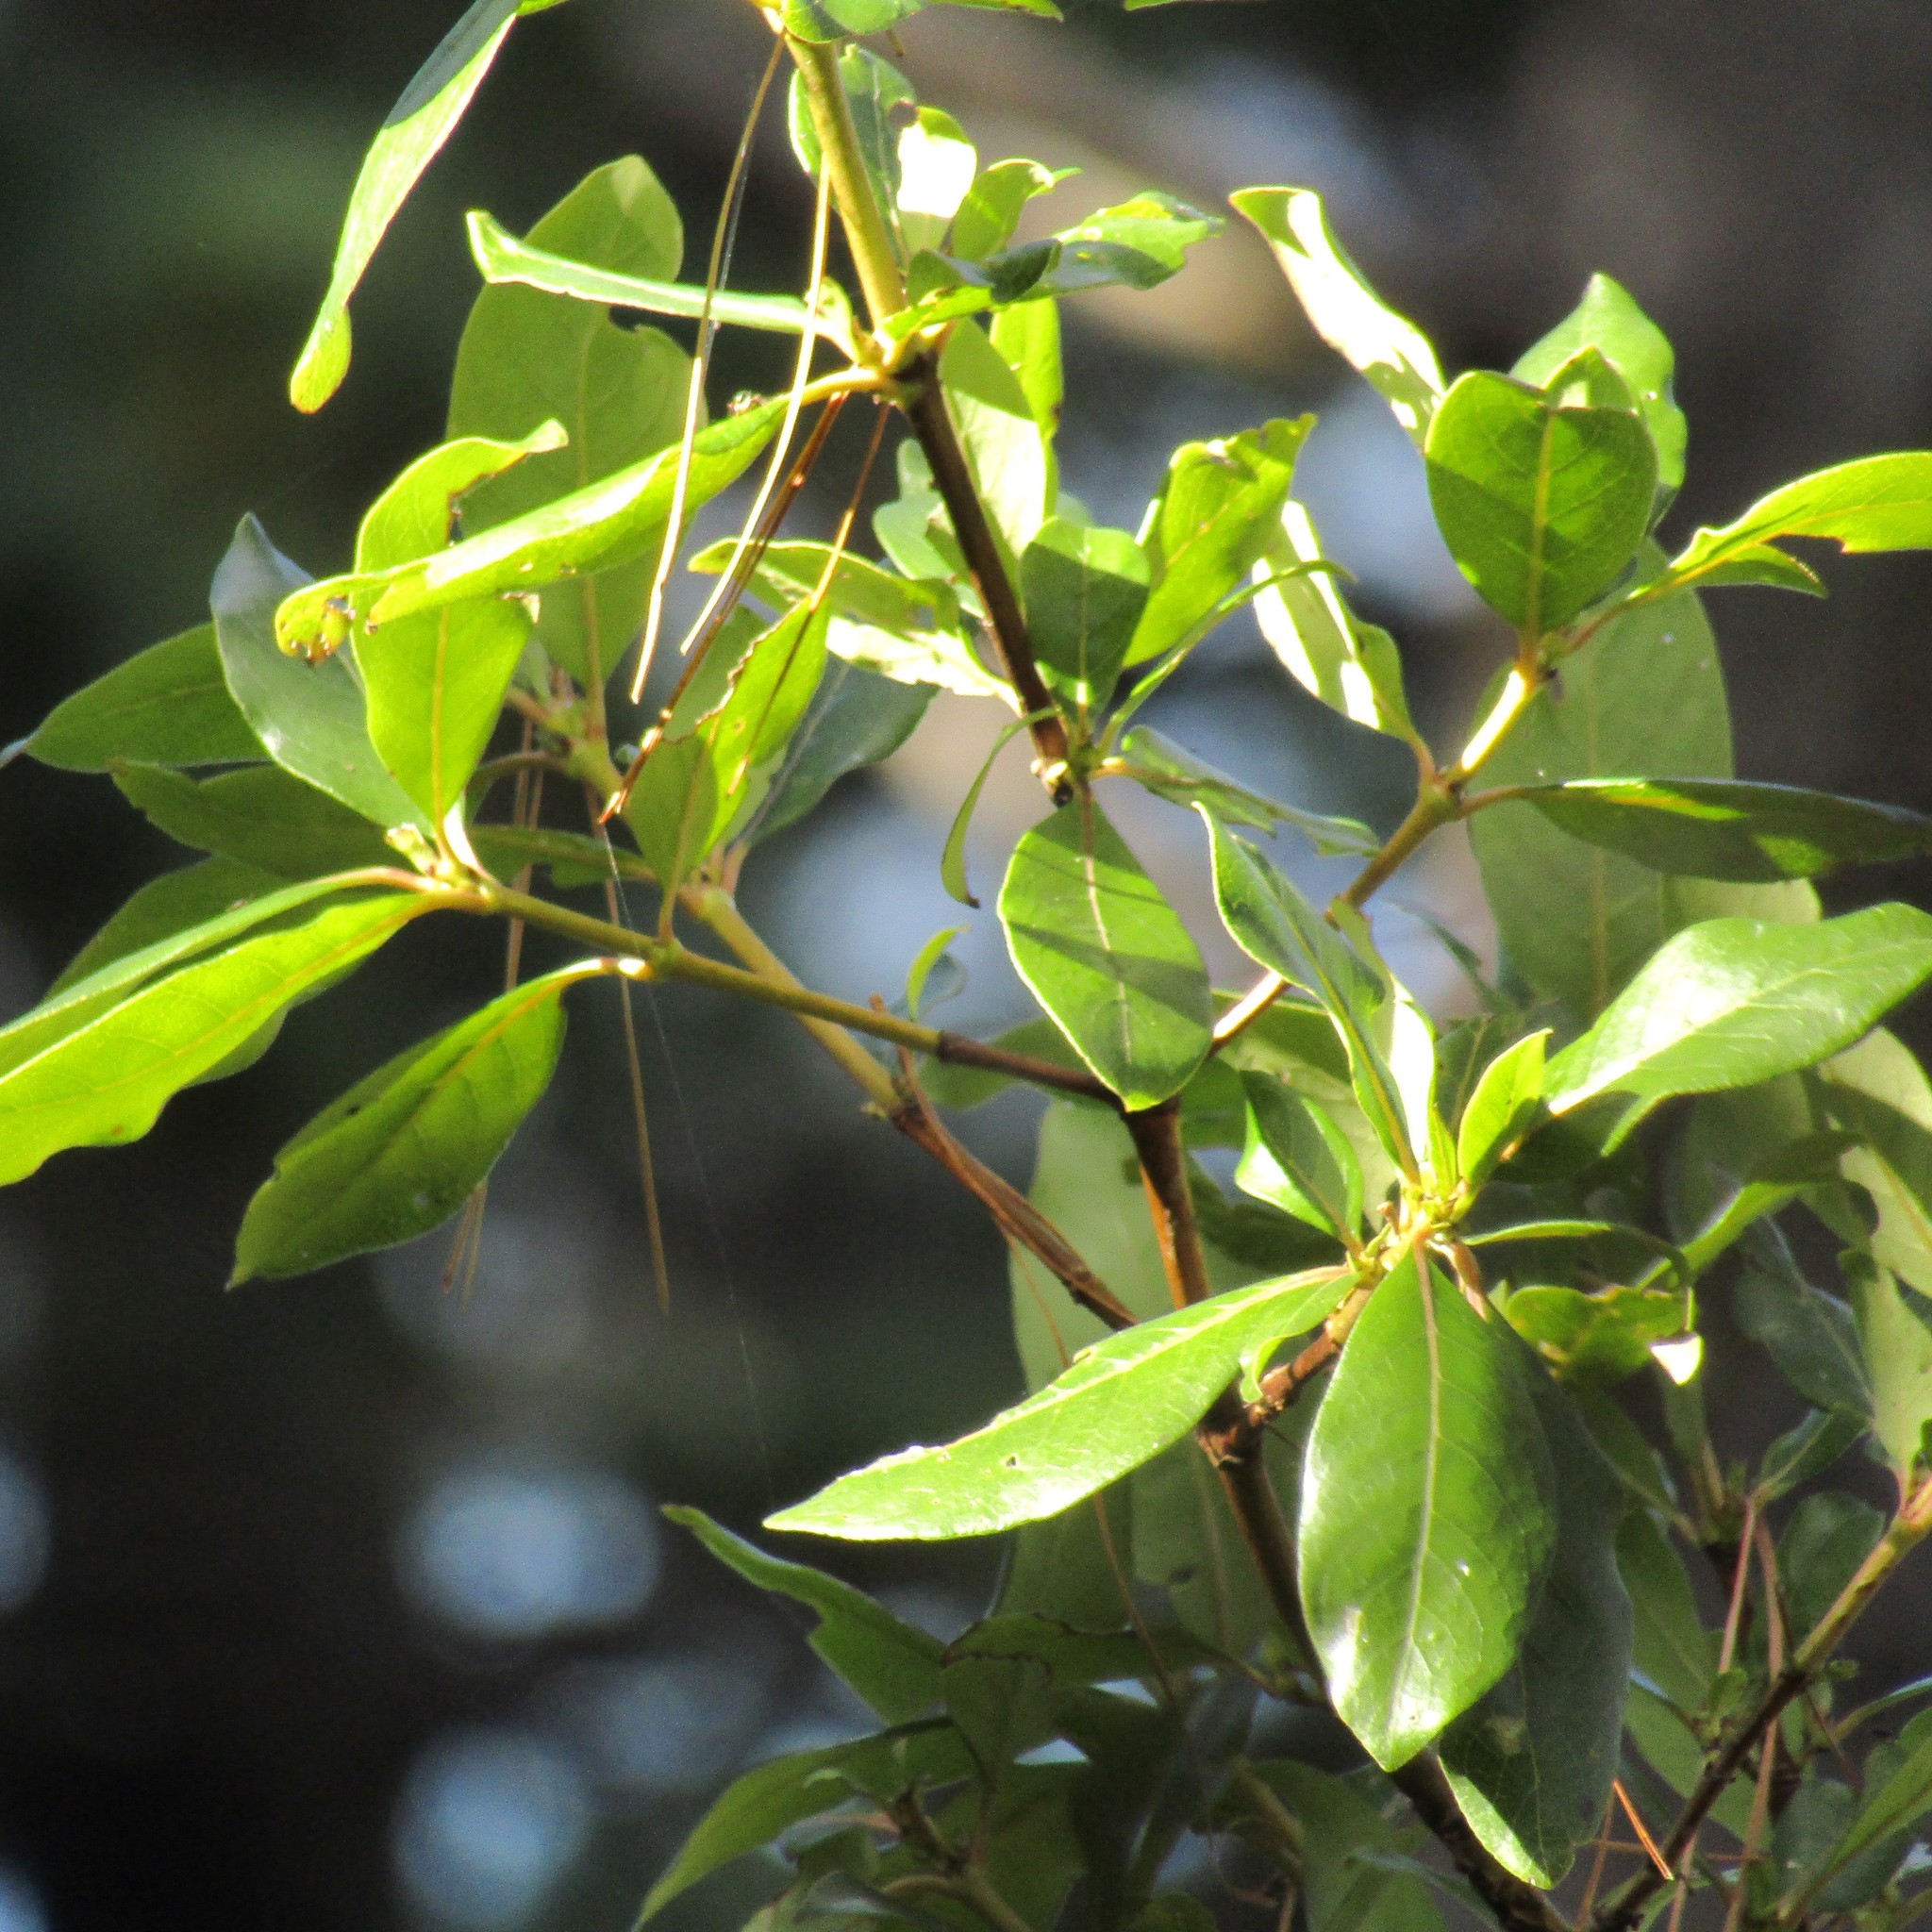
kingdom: Plantae
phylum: Tracheophyta
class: Magnoliopsida
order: Gentianales
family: Rubiaceae
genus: Coprosma
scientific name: Coprosma robusta
